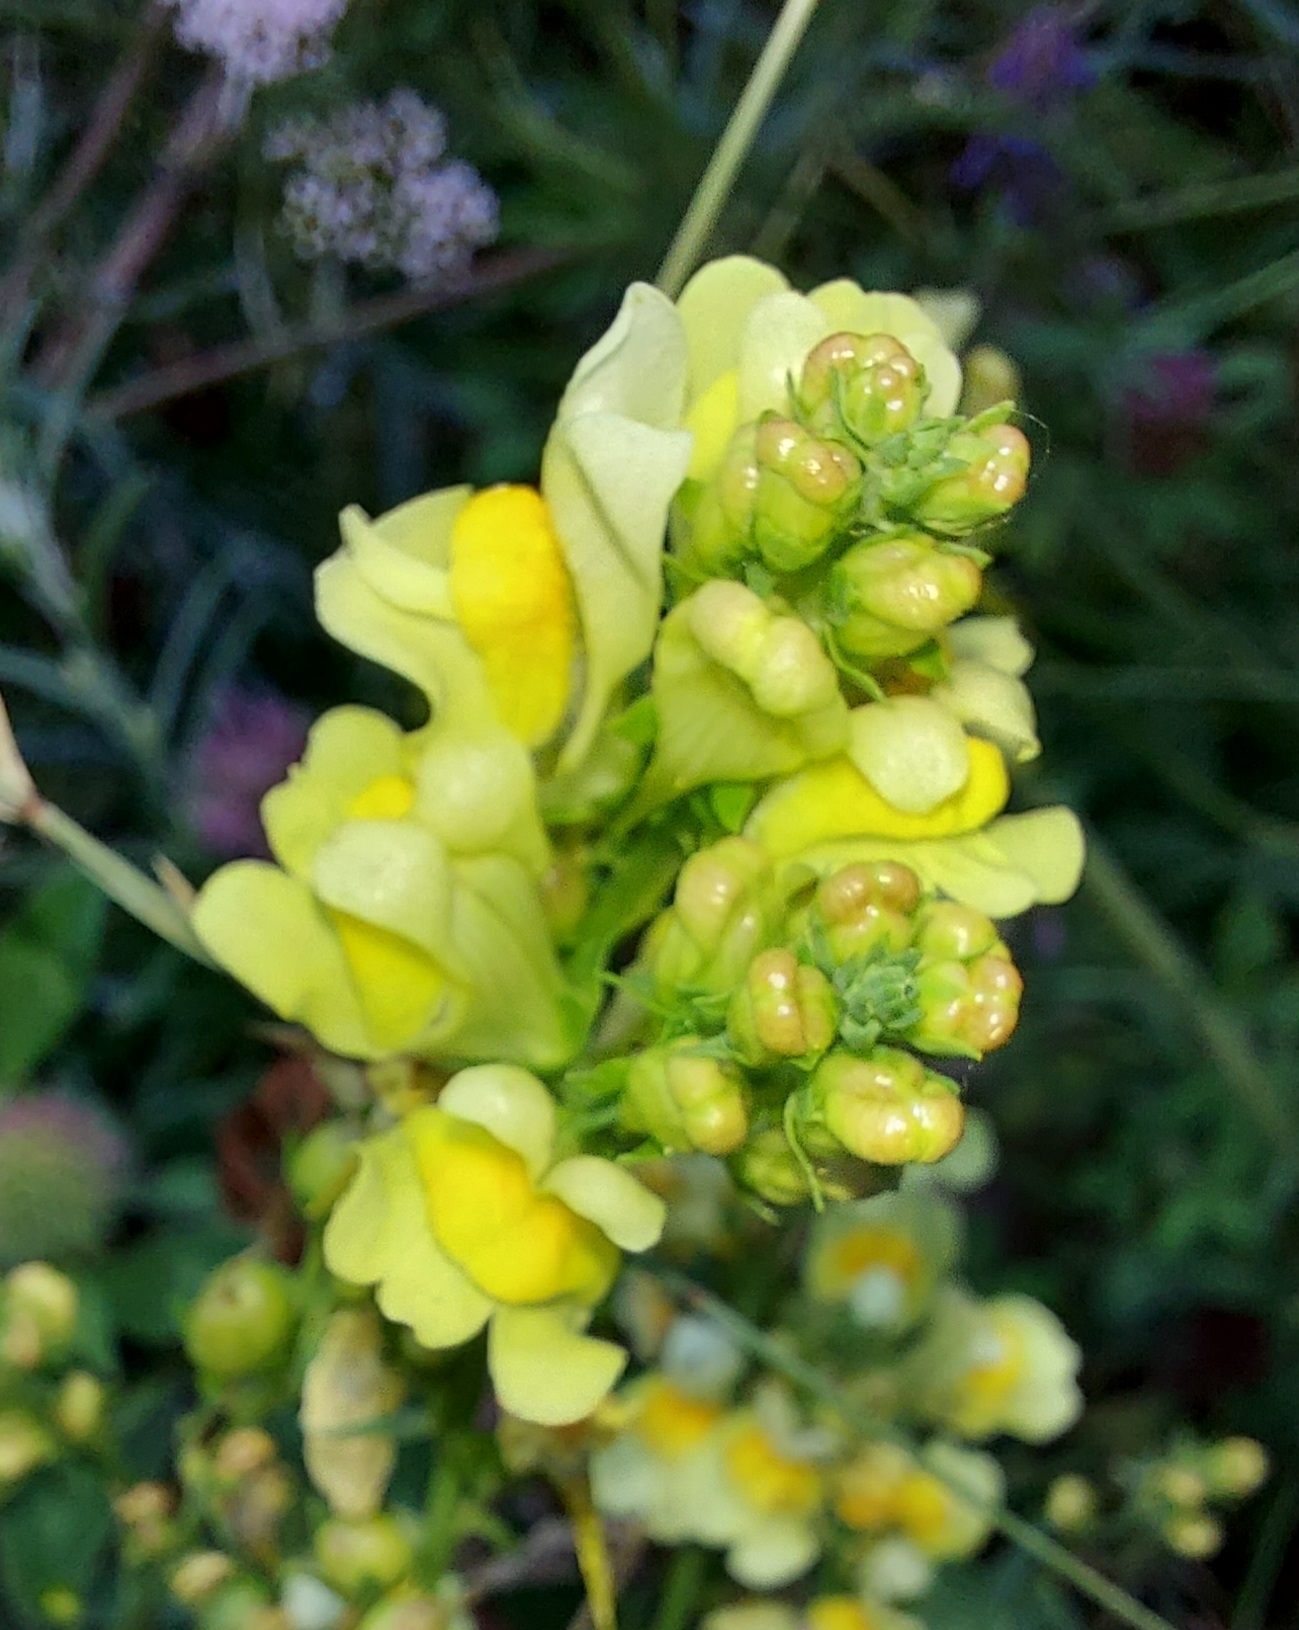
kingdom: Plantae
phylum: Tracheophyta
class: Magnoliopsida
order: Lamiales
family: Plantaginaceae
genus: Linaria
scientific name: Linaria vulgaris
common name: Butter and eggs
